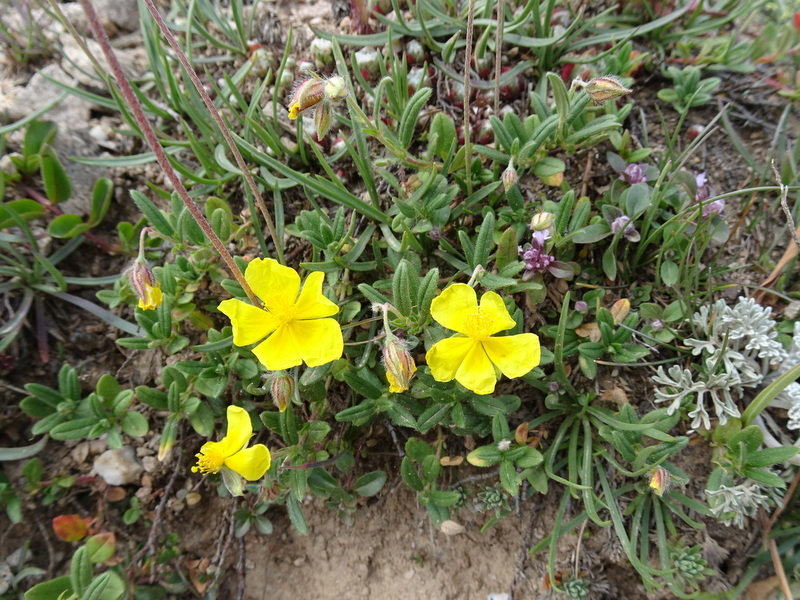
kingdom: Plantae
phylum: Tracheophyta
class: Magnoliopsida
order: Malvales
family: Cistaceae
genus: Helianthemum
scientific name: Helianthemum nummularium
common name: Common rock-rose
